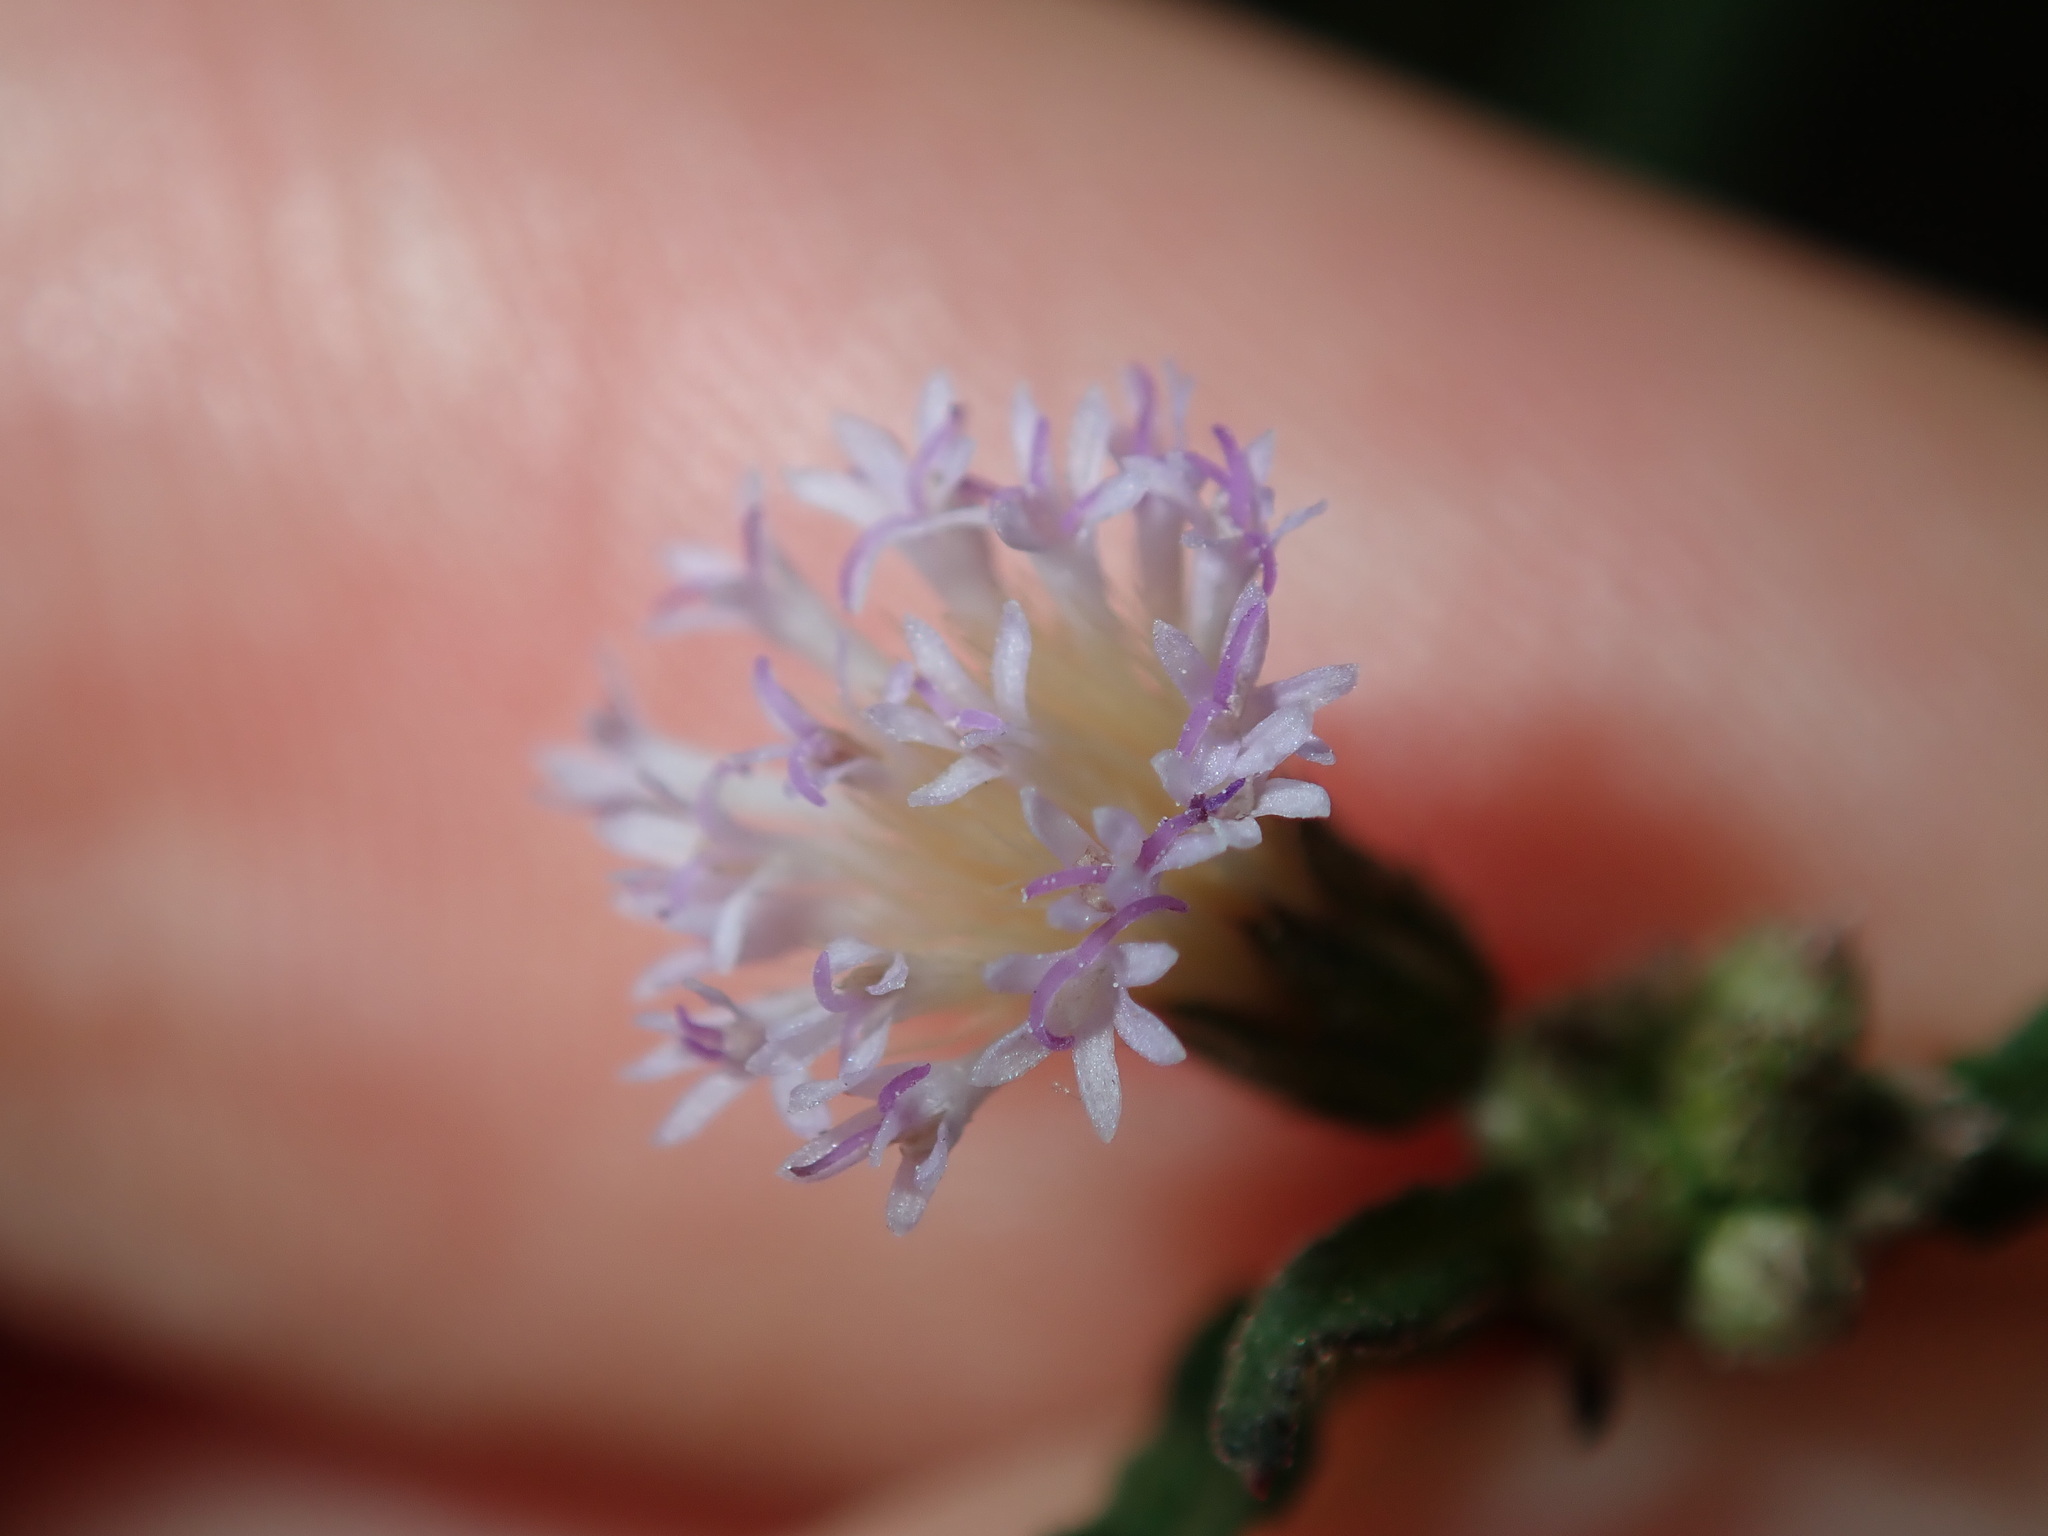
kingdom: Plantae
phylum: Tracheophyta
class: Magnoliopsida
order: Asterales
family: Asteraceae
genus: Cyanthillium
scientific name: Cyanthillium cinereum
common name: Little ironweed
